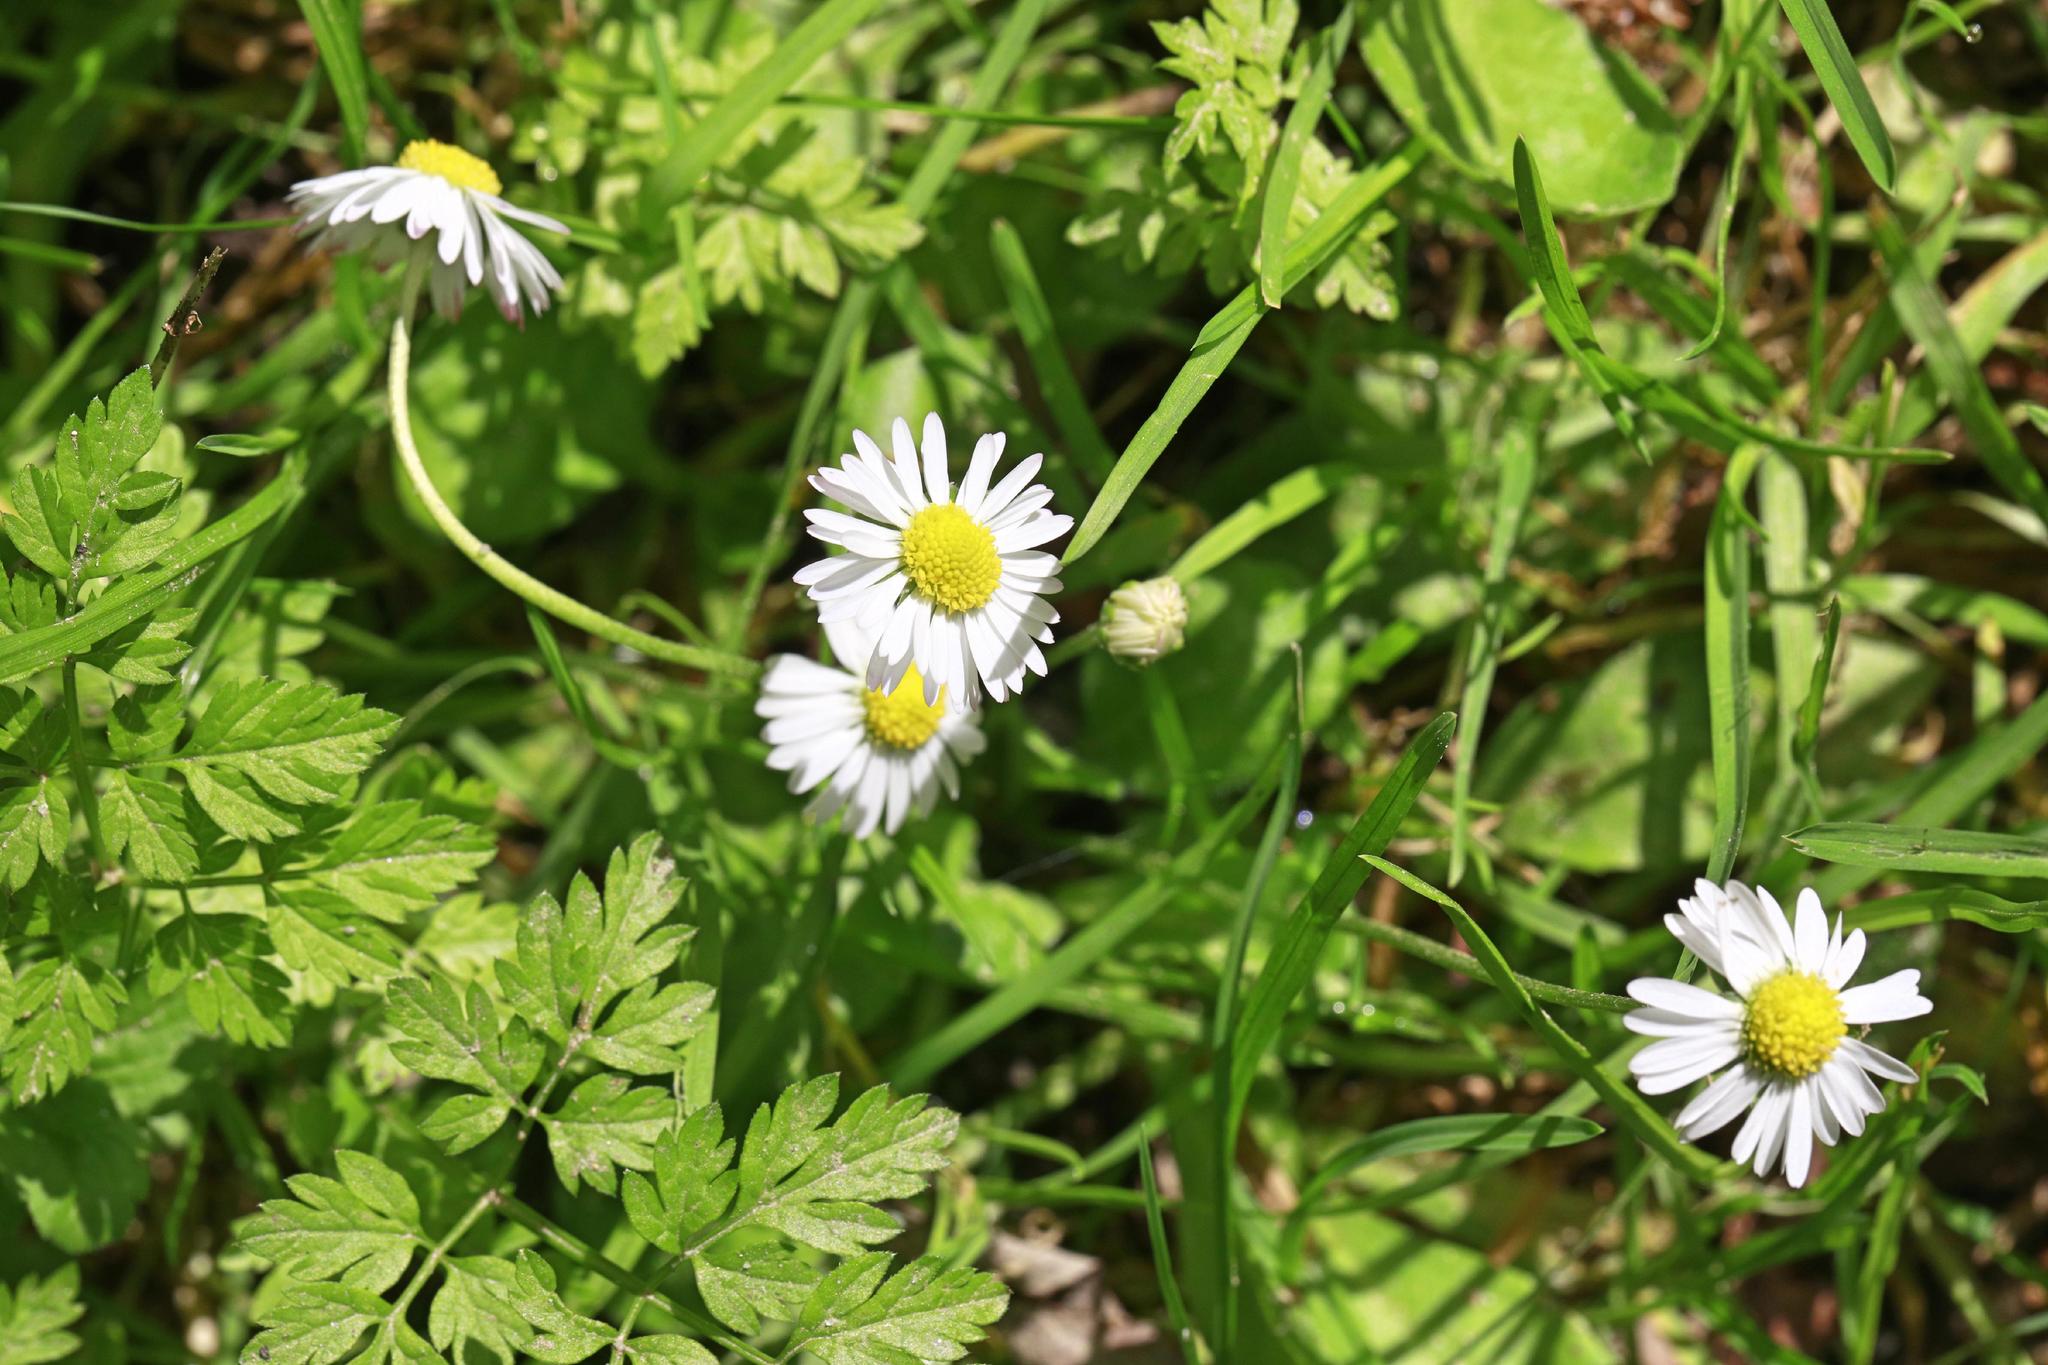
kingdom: Plantae
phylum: Tracheophyta
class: Magnoliopsida
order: Asterales
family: Asteraceae
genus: Bellis
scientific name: Bellis perennis
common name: Lawndaisy
